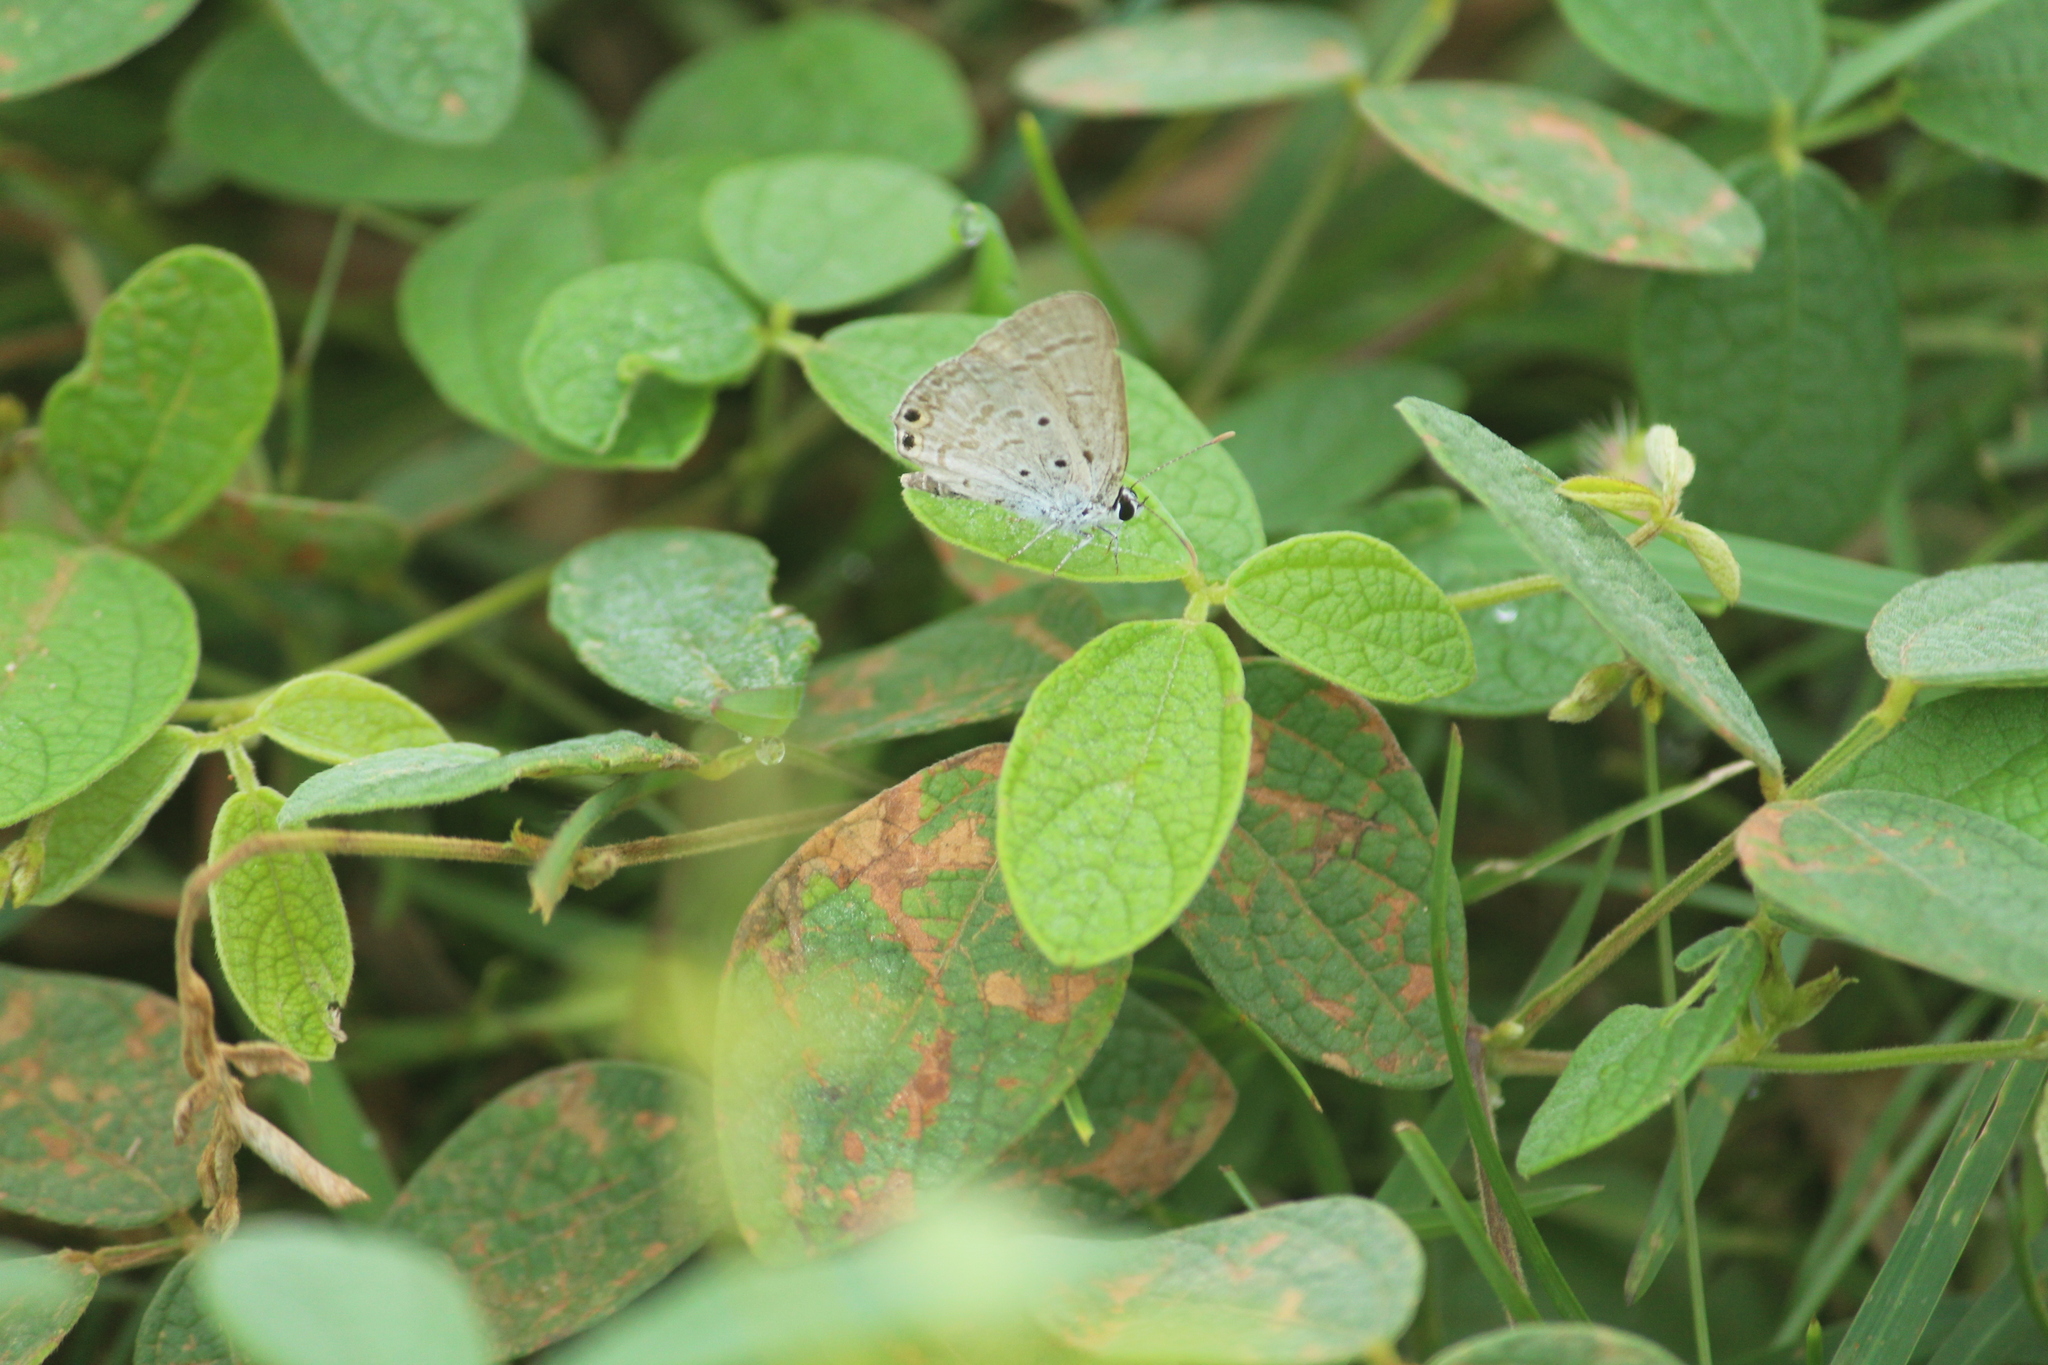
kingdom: Animalia
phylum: Arthropoda
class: Insecta
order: Lepidoptera
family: Lycaenidae
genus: Euchrysops
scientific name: Euchrysops cnejus
